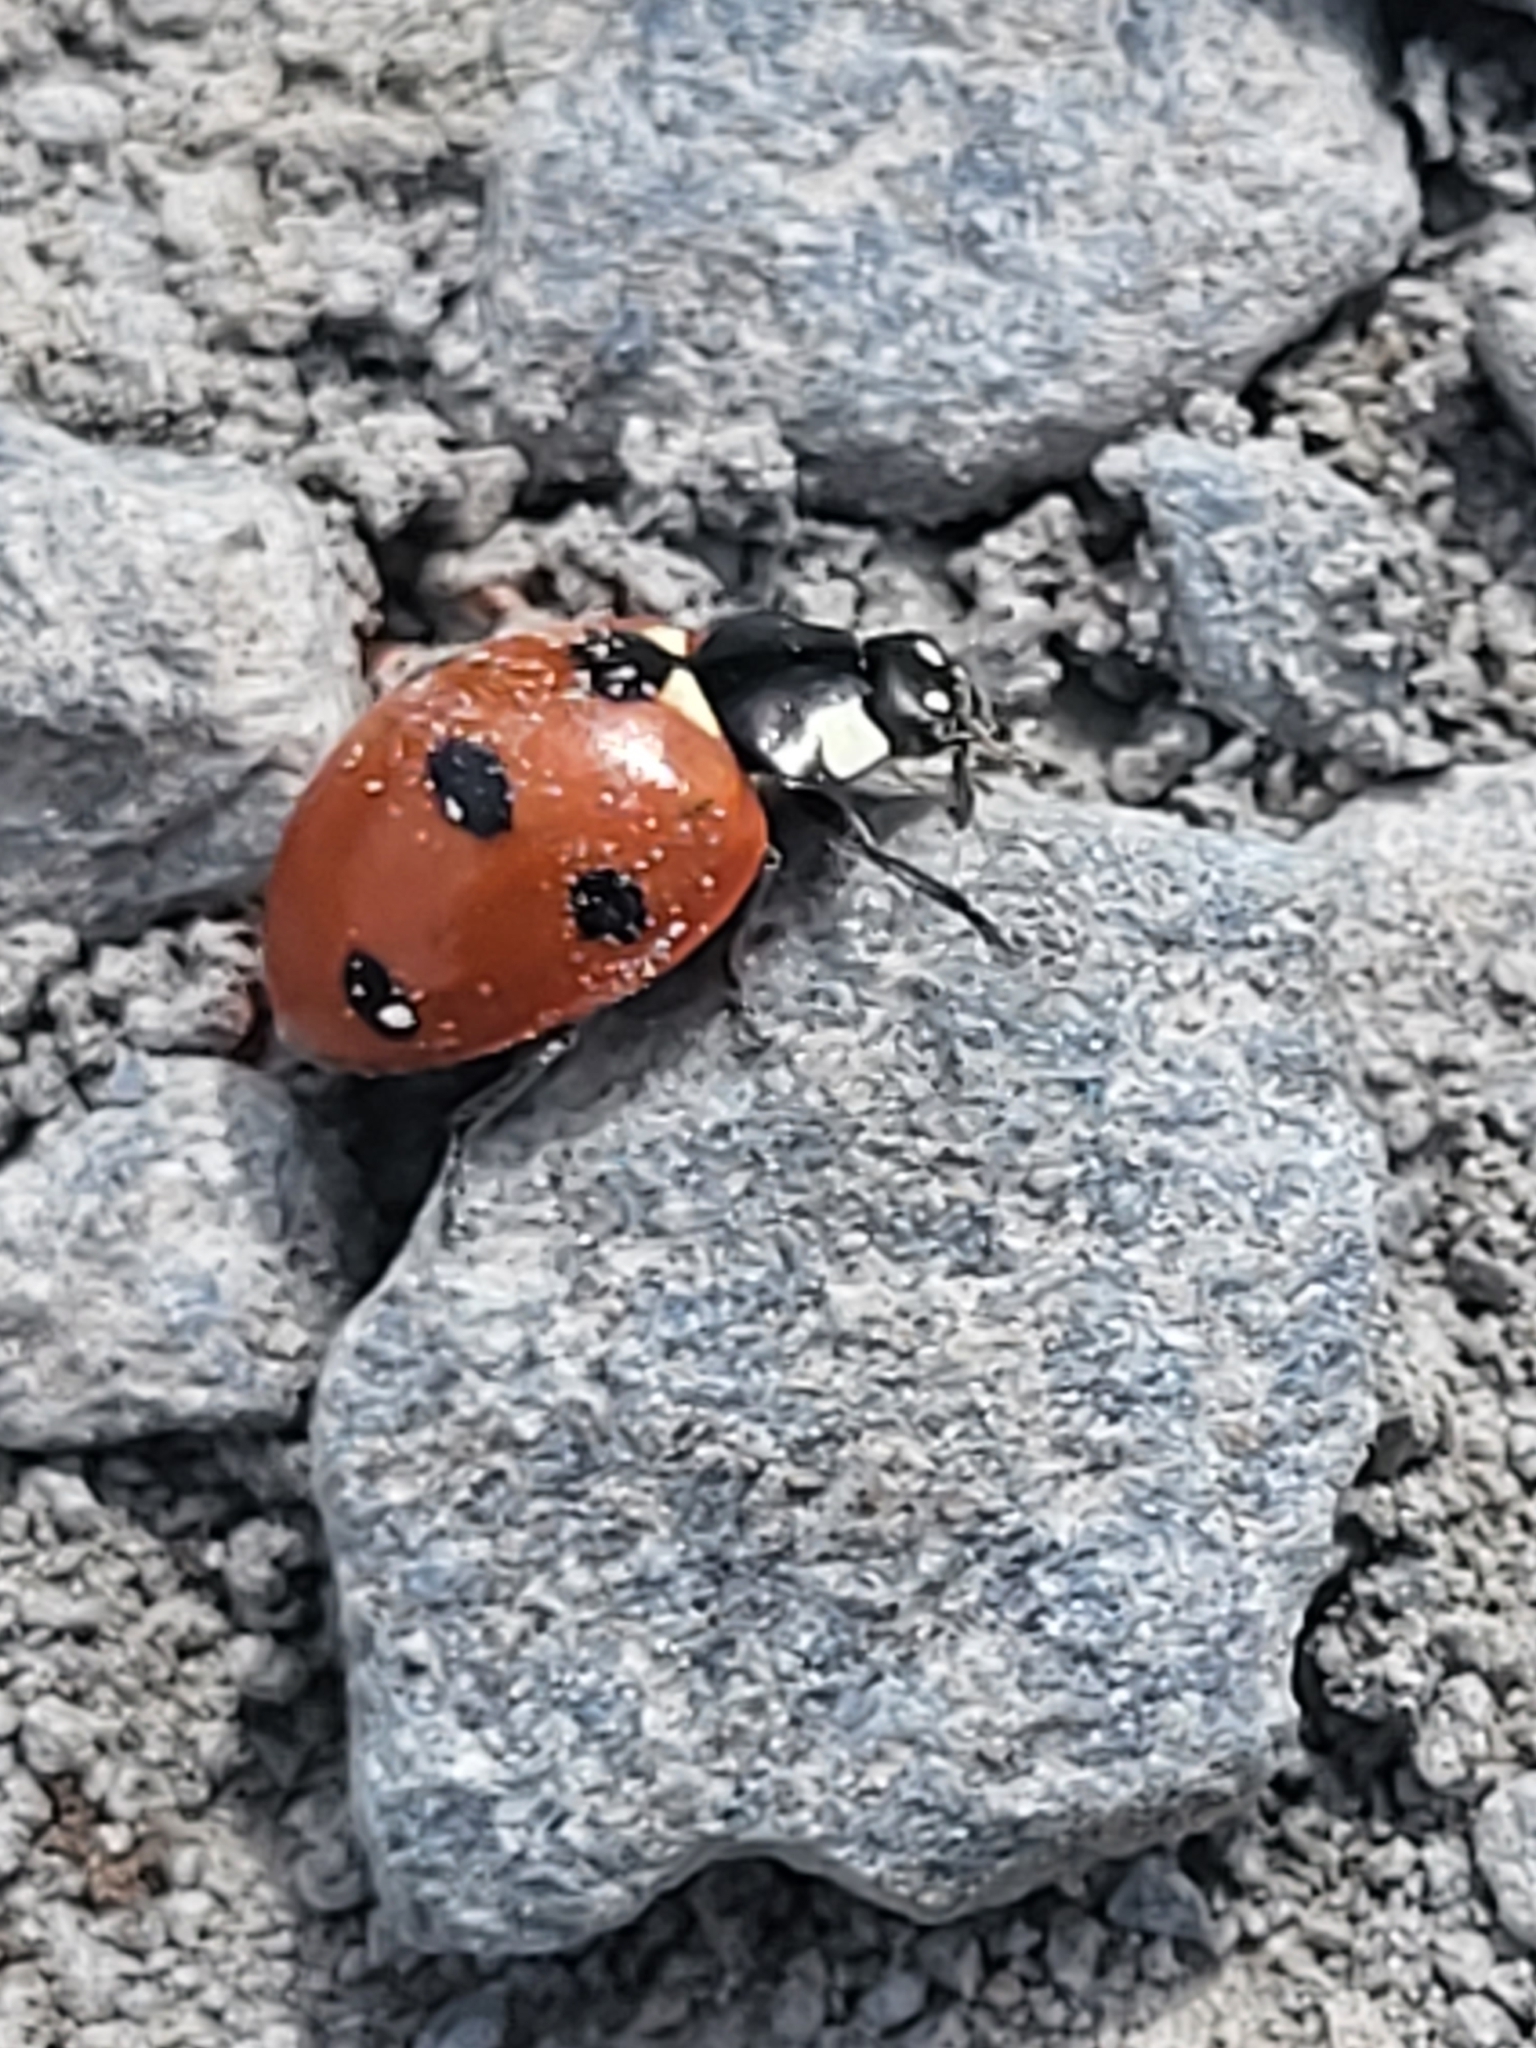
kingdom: Animalia
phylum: Arthropoda
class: Insecta
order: Coleoptera
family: Coccinellidae
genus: Coccinella
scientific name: Coccinella septempunctata
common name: Sevenspotted lady beetle
